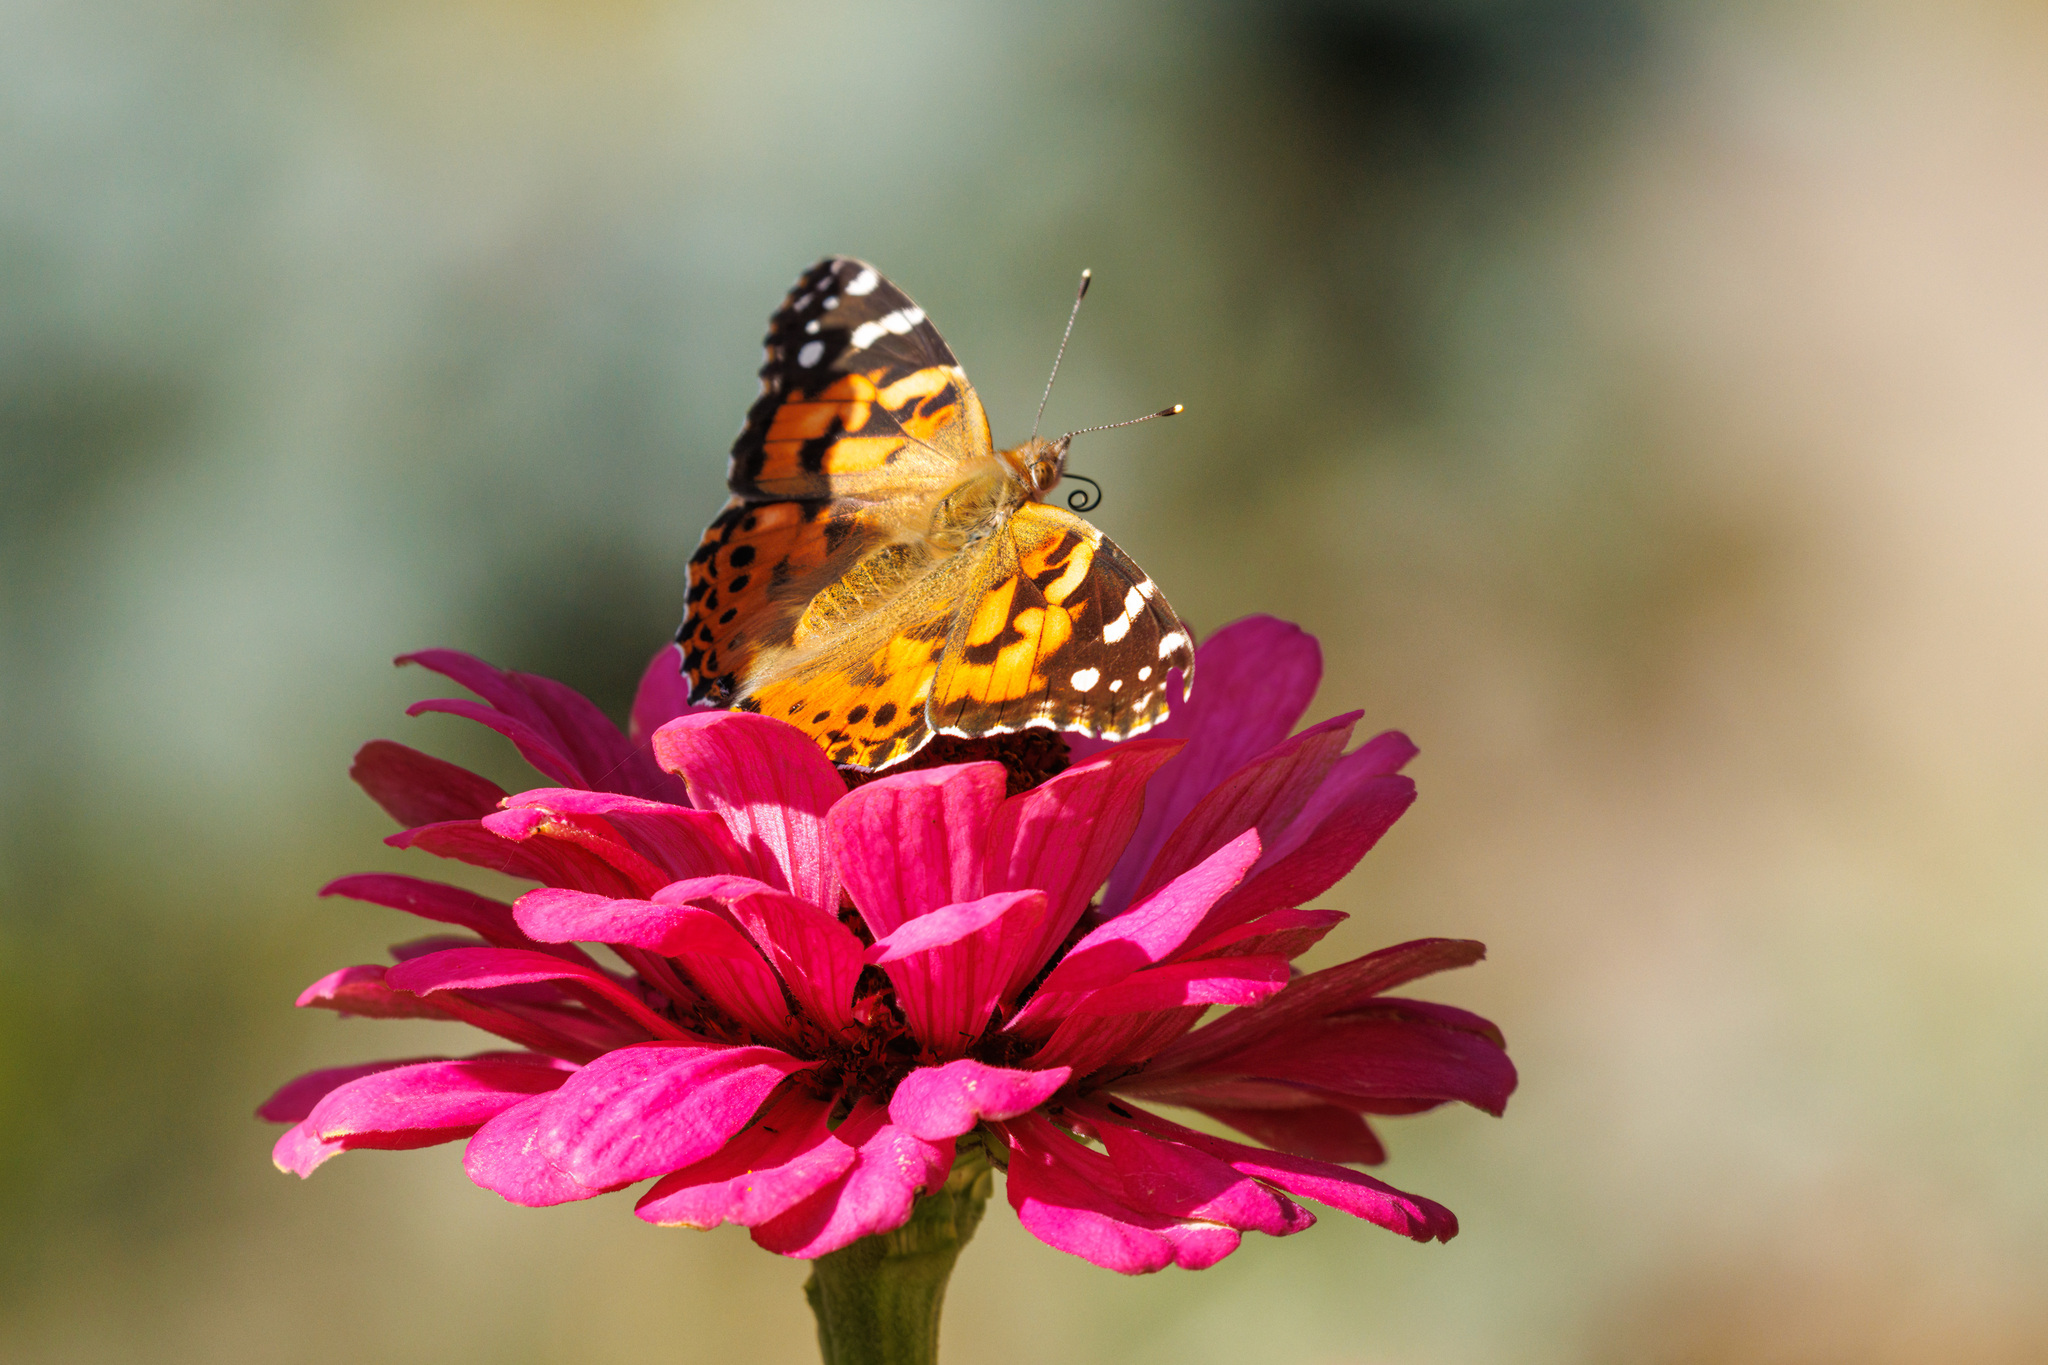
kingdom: Animalia
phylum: Arthropoda
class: Insecta
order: Lepidoptera
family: Nymphalidae
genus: Vanessa
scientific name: Vanessa cardui
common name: Painted lady
